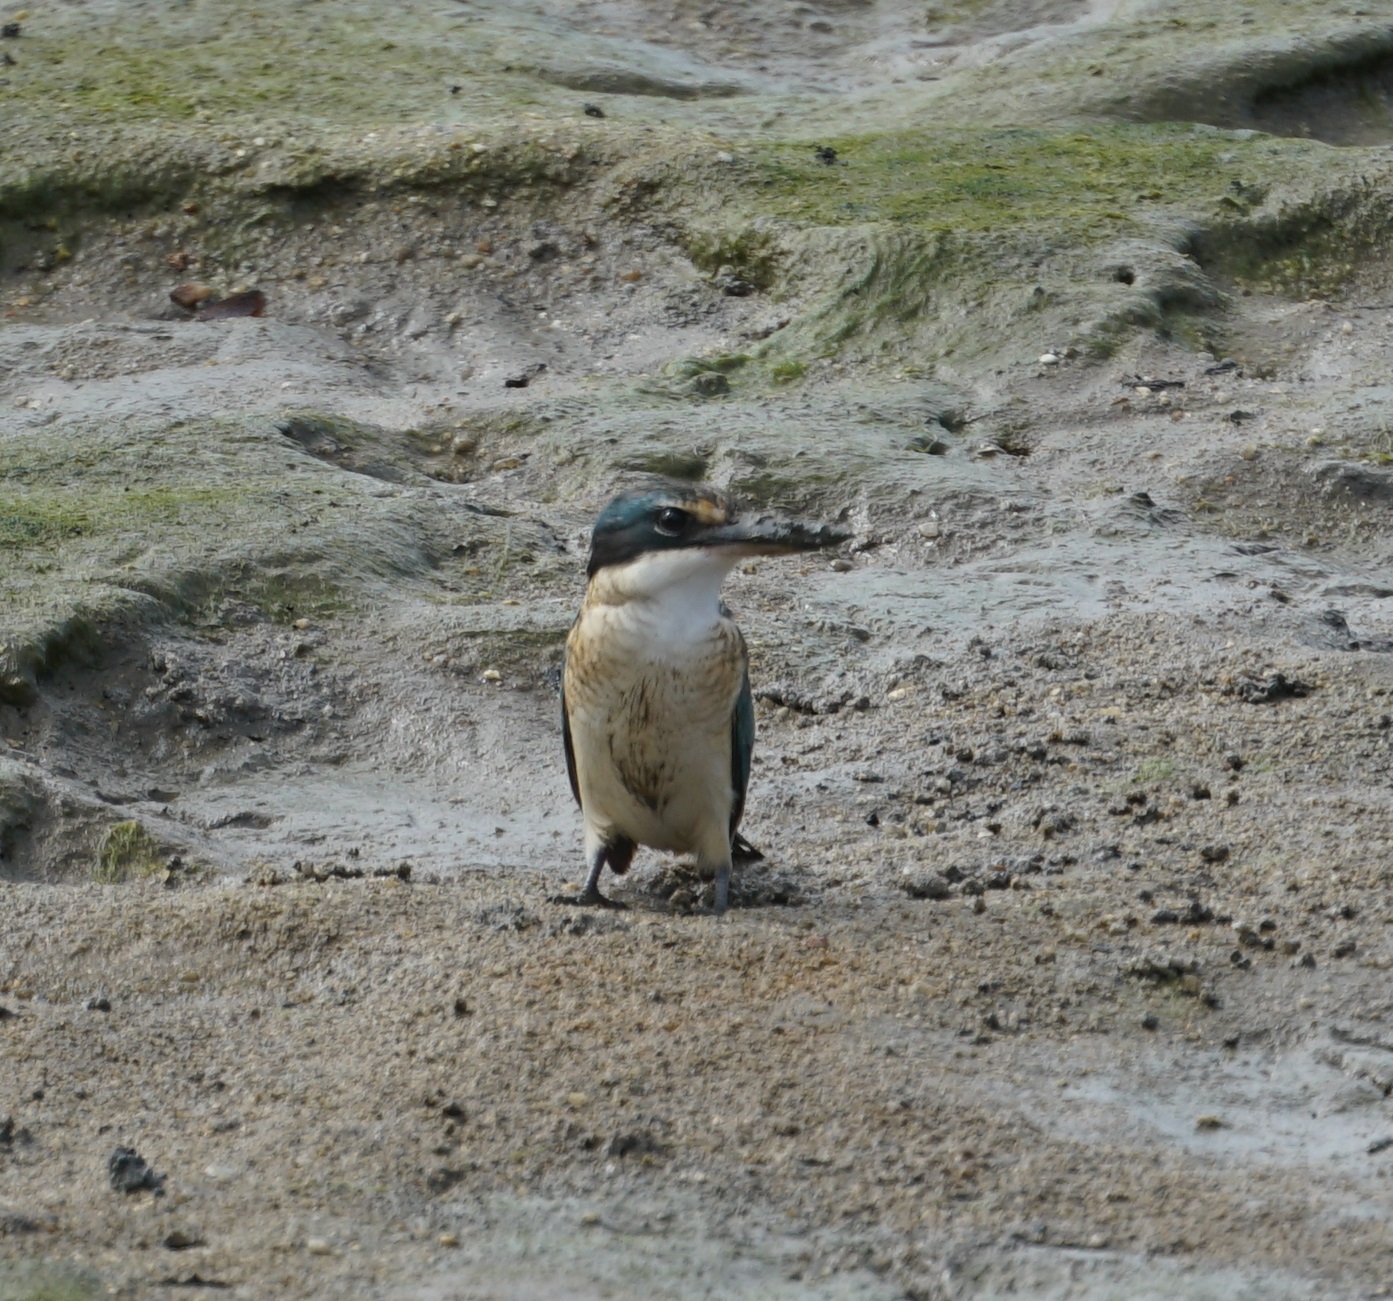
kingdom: Animalia
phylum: Chordata
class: Aves
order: Coraciiformes
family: Alcedinidae
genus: Todiramphus
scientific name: Todiramphus sanctus
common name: Sacred kingfisher
